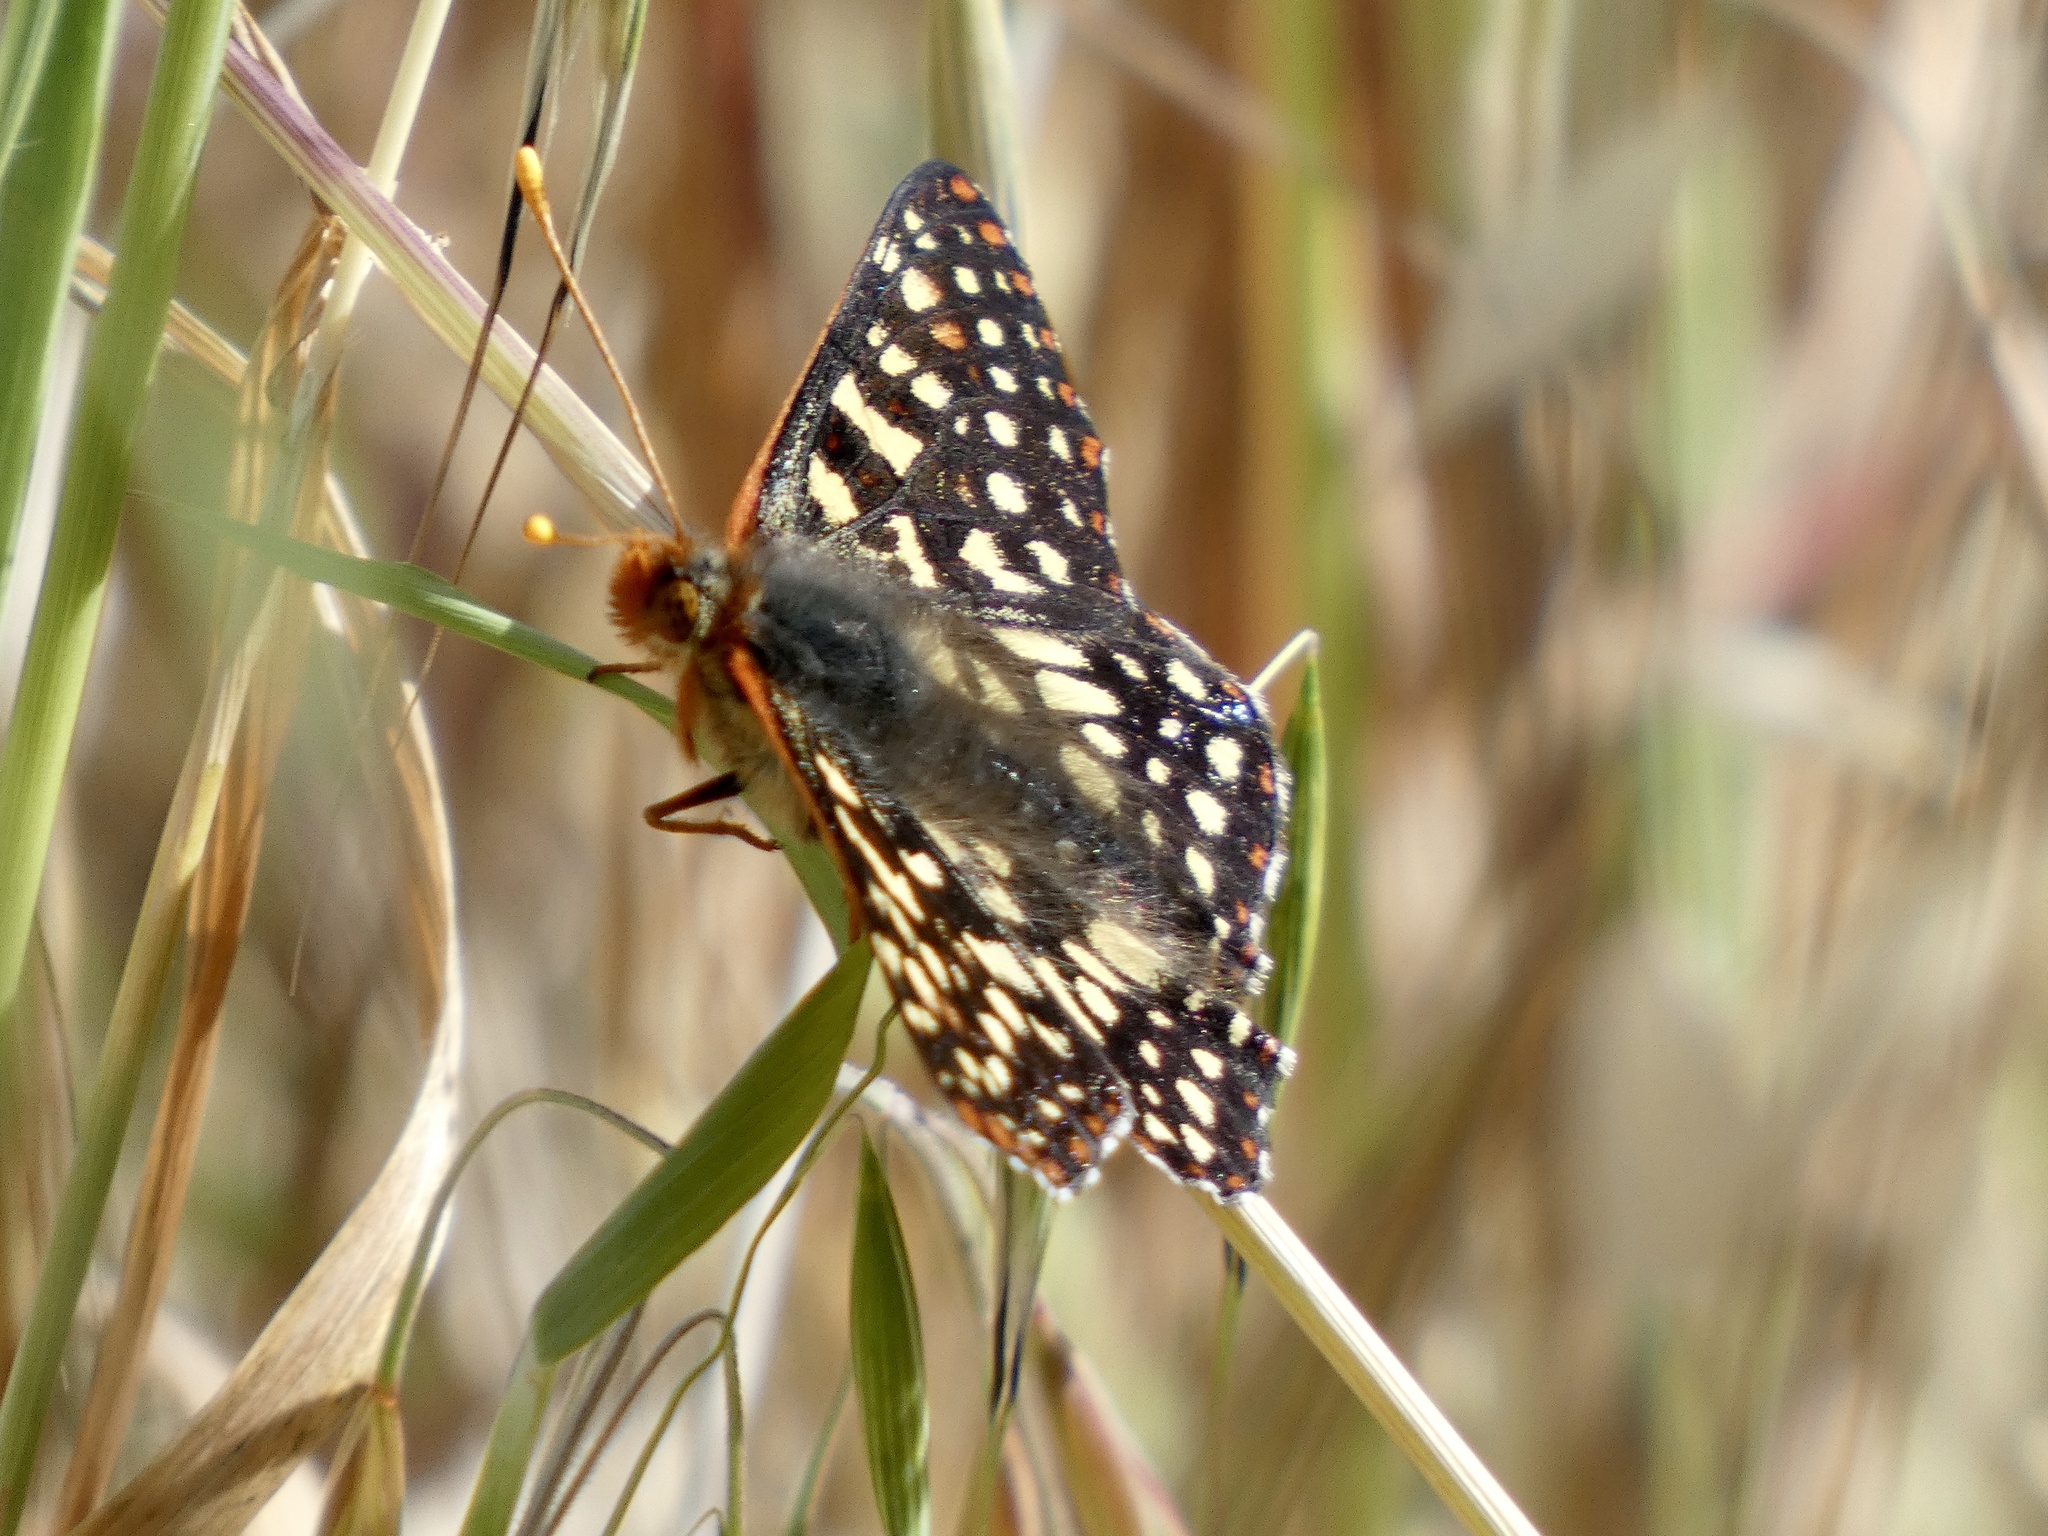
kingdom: Animalia
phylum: Arthropoda
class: Insecta
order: Lepidoptera
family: Nymphalidae
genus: Occidryas
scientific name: Occidryas chalcedona
